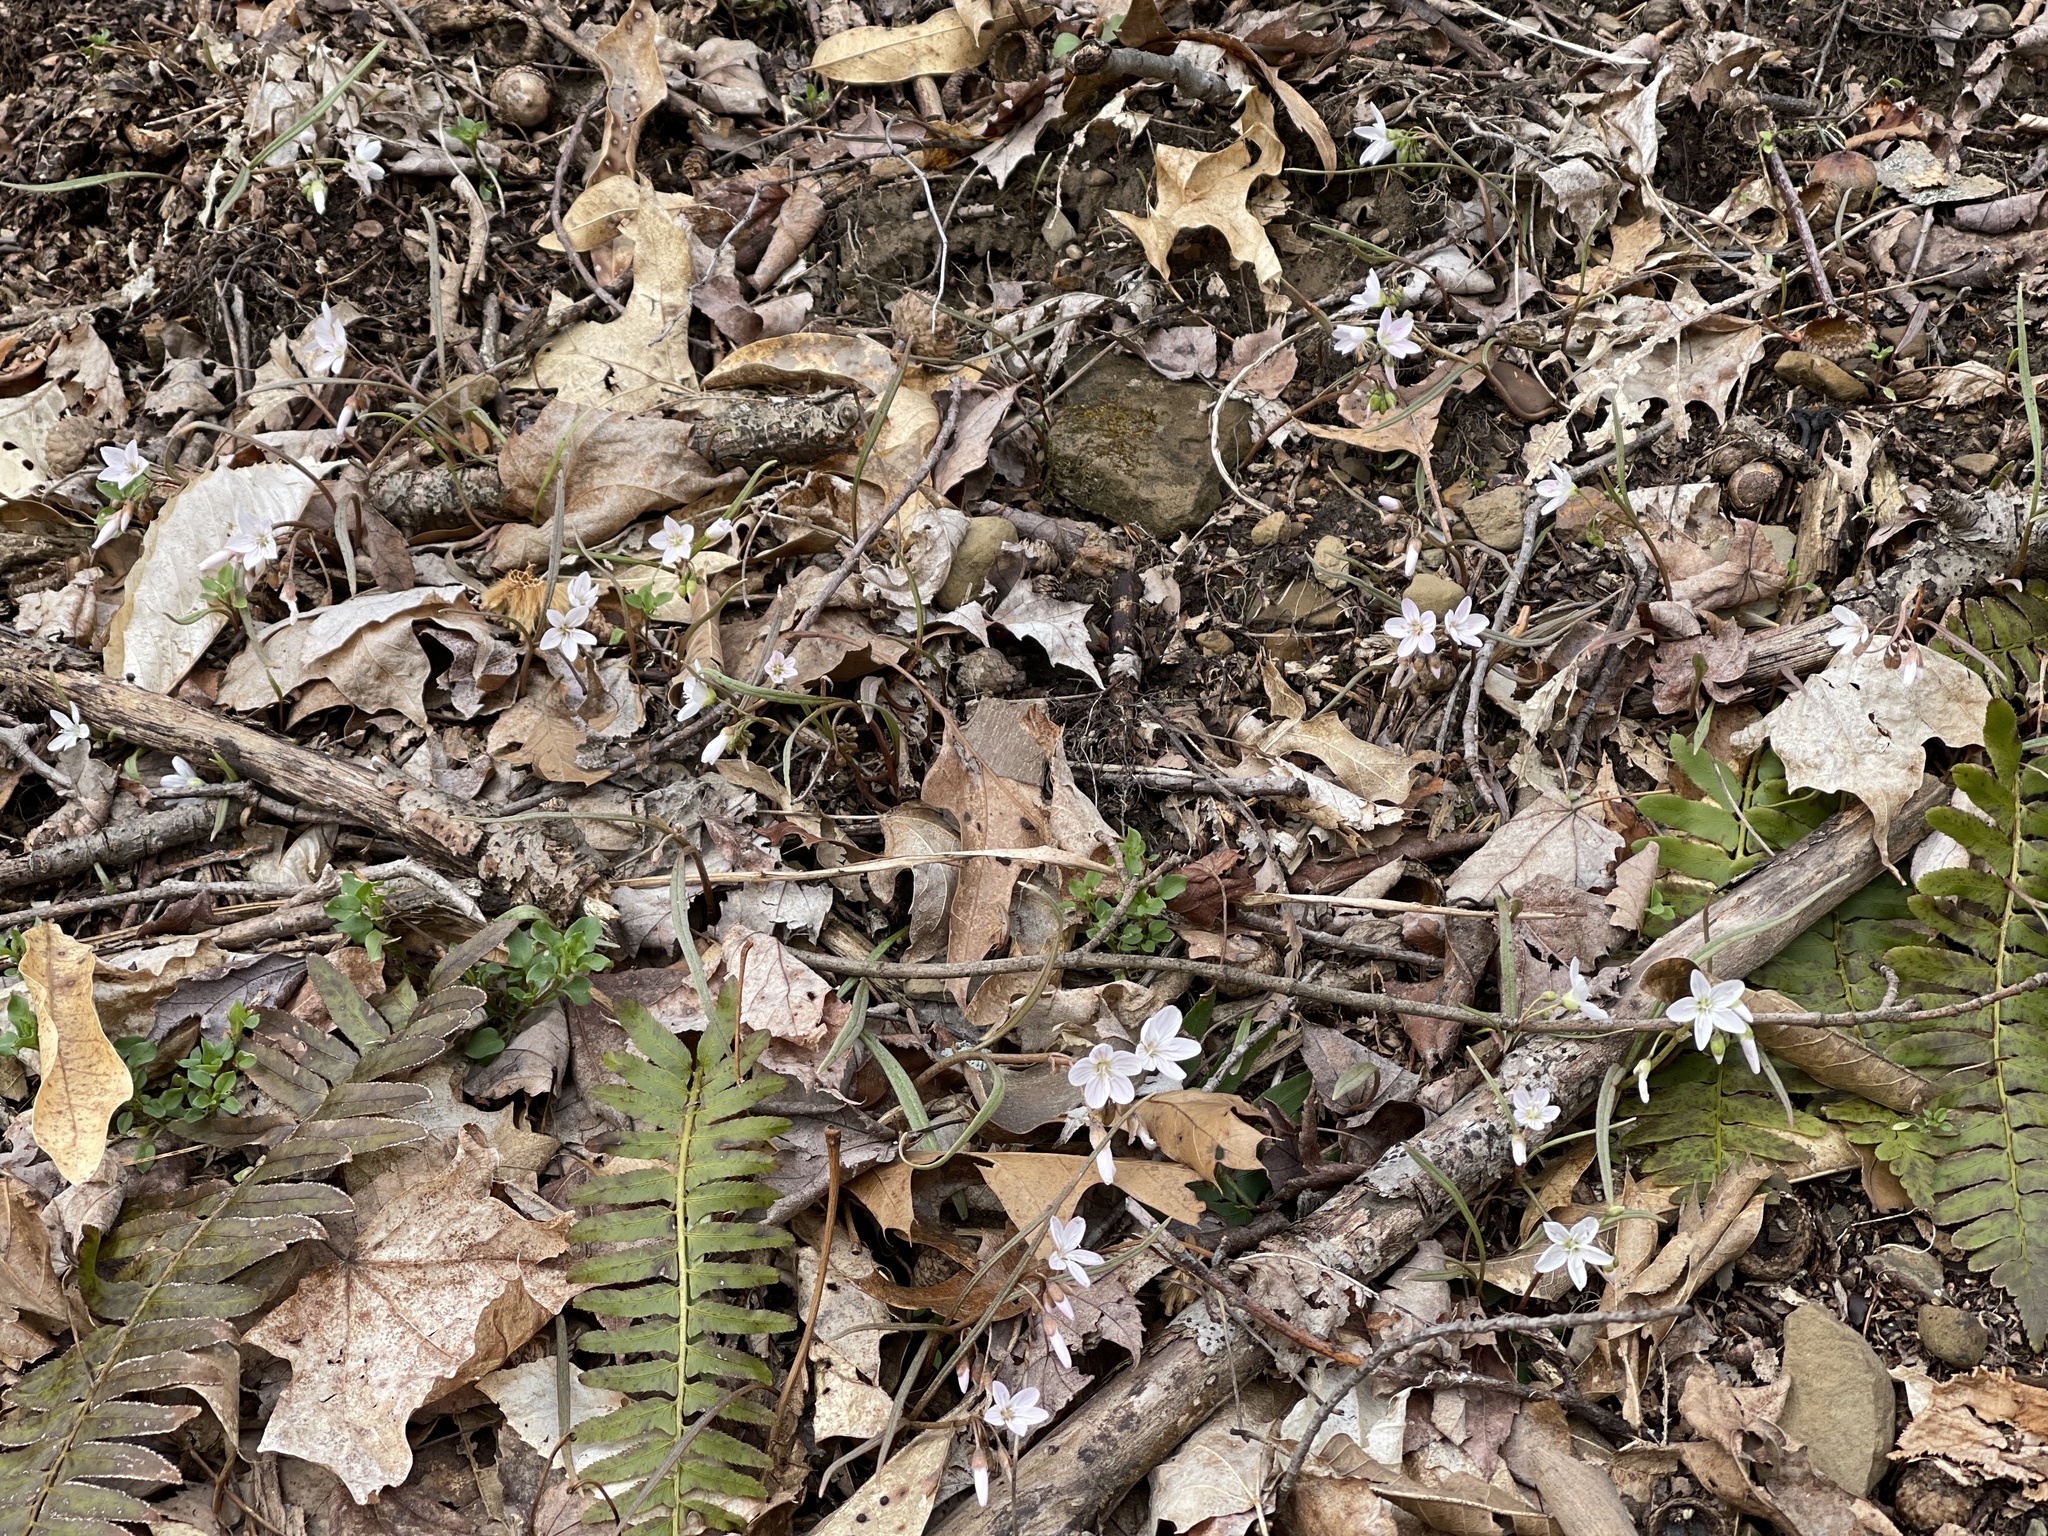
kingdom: Plantae
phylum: Tracheophyta
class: Magnoliopsida
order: Caryophyllales
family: Montiaceae
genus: Claytonia
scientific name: Claytonia virginica
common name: Virginia springbeauty
